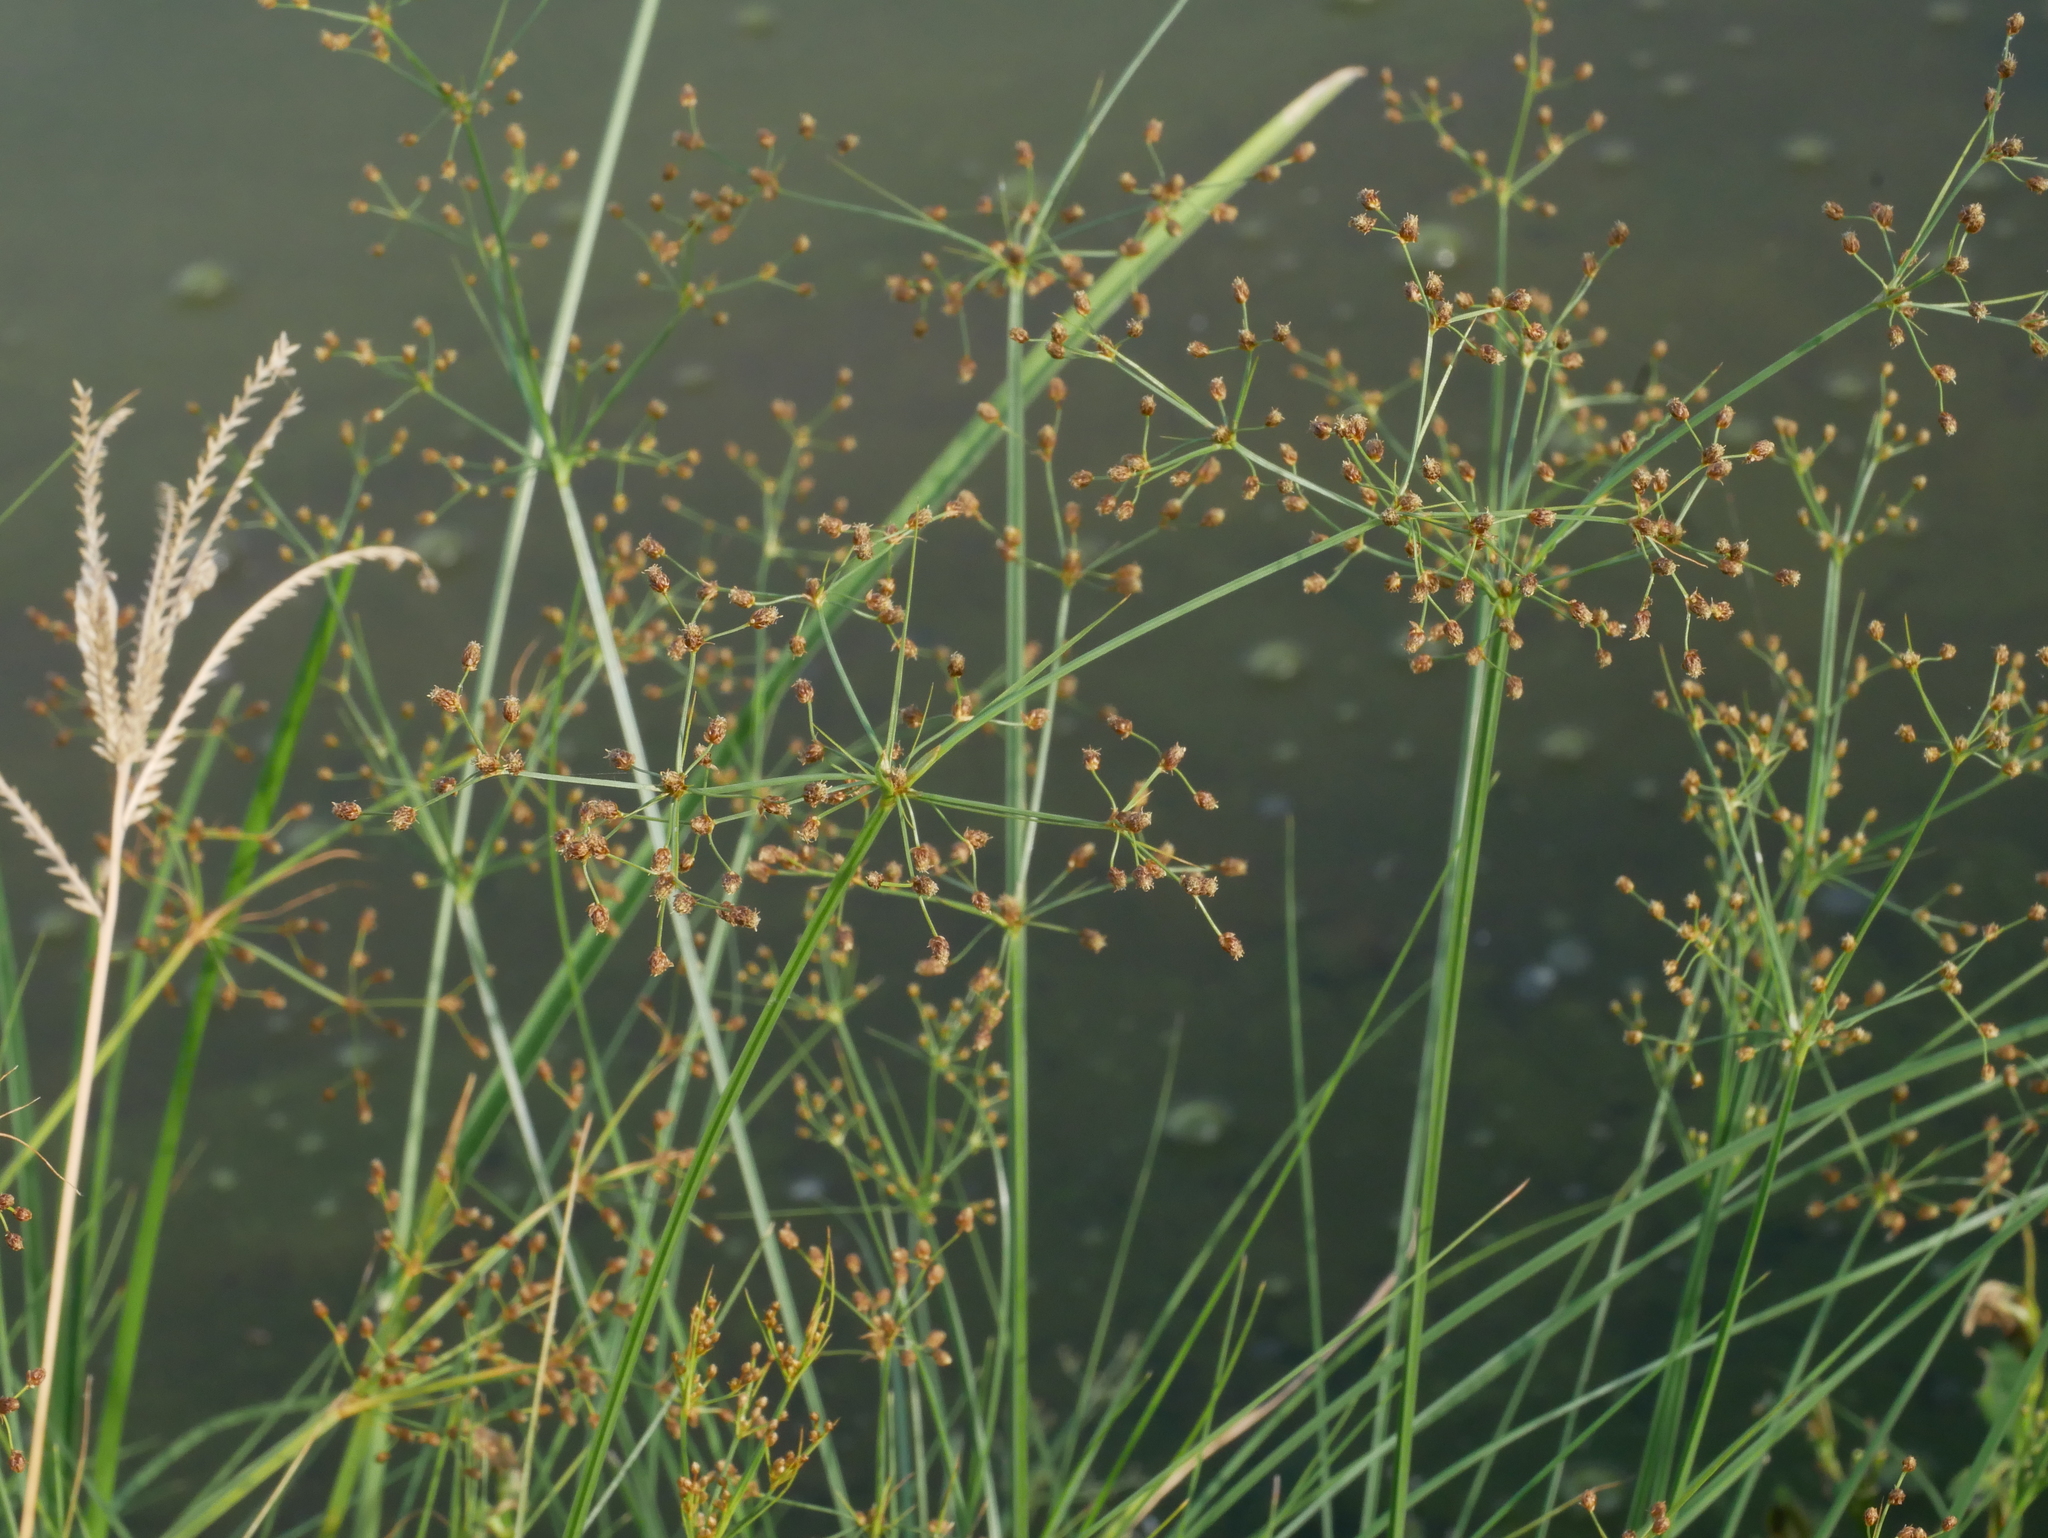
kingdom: Plantae
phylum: Tracheophyta
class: Liliopsida
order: Poales
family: Cyperaceae
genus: Fimbristylis
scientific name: Fimbristylis littoralis
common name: Fimbry
